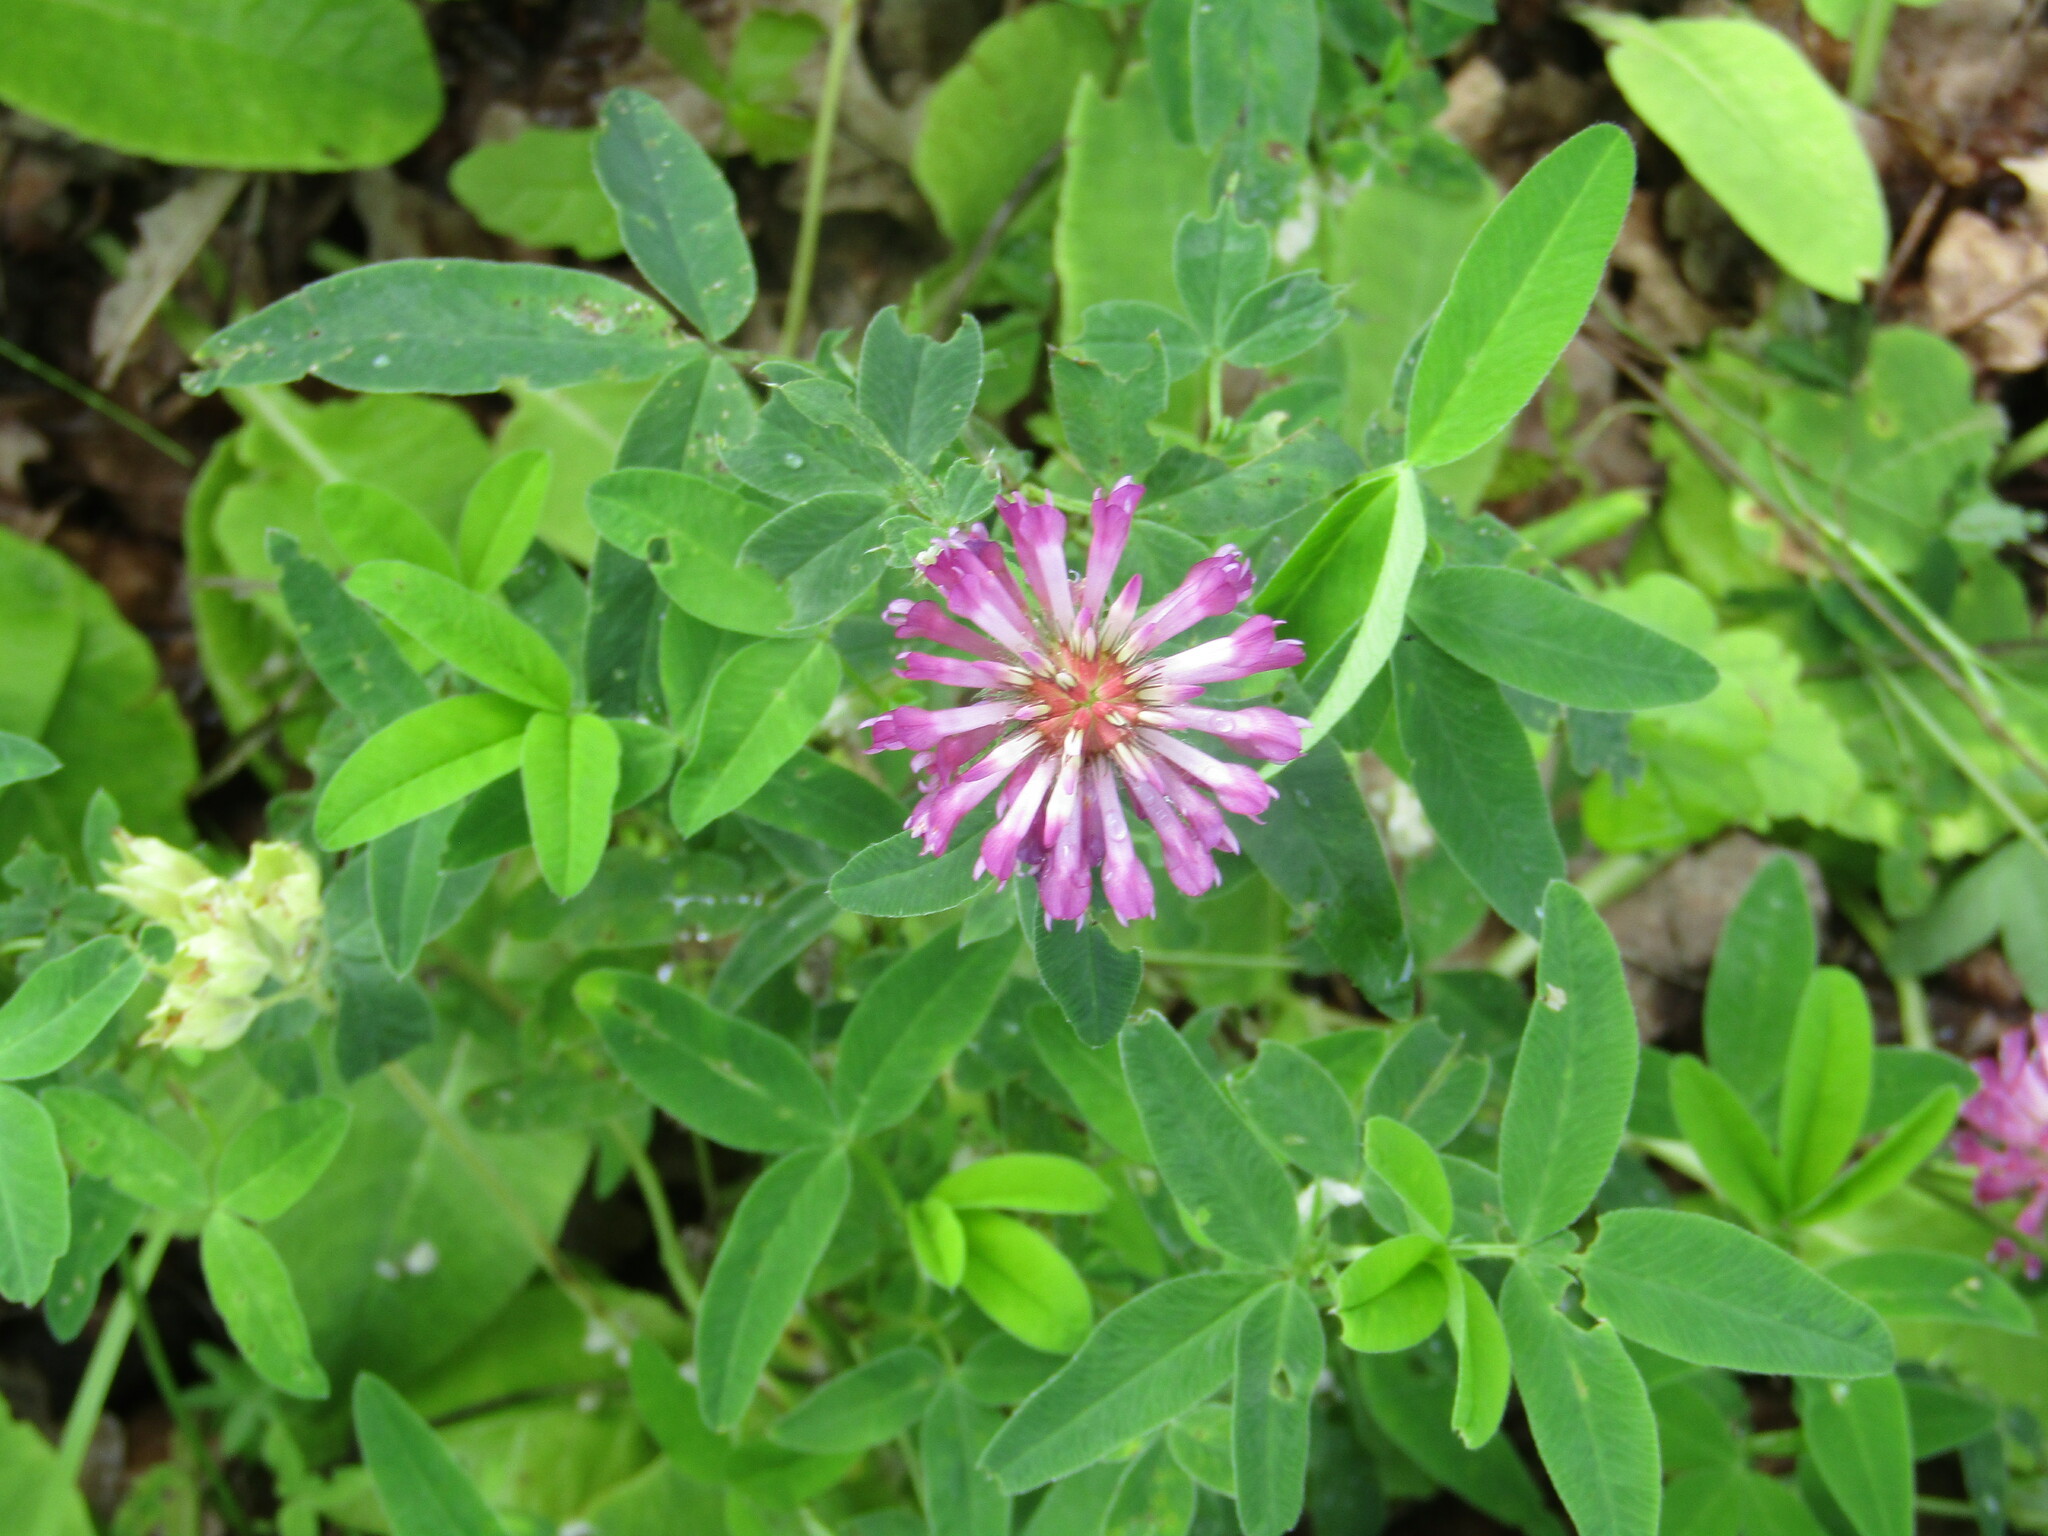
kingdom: Plantae
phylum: Tracheophyta
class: Magnoliopsida
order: Fabales
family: Fabaceae
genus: Trifolium
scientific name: Trifolium medium
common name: Zigzag clover
